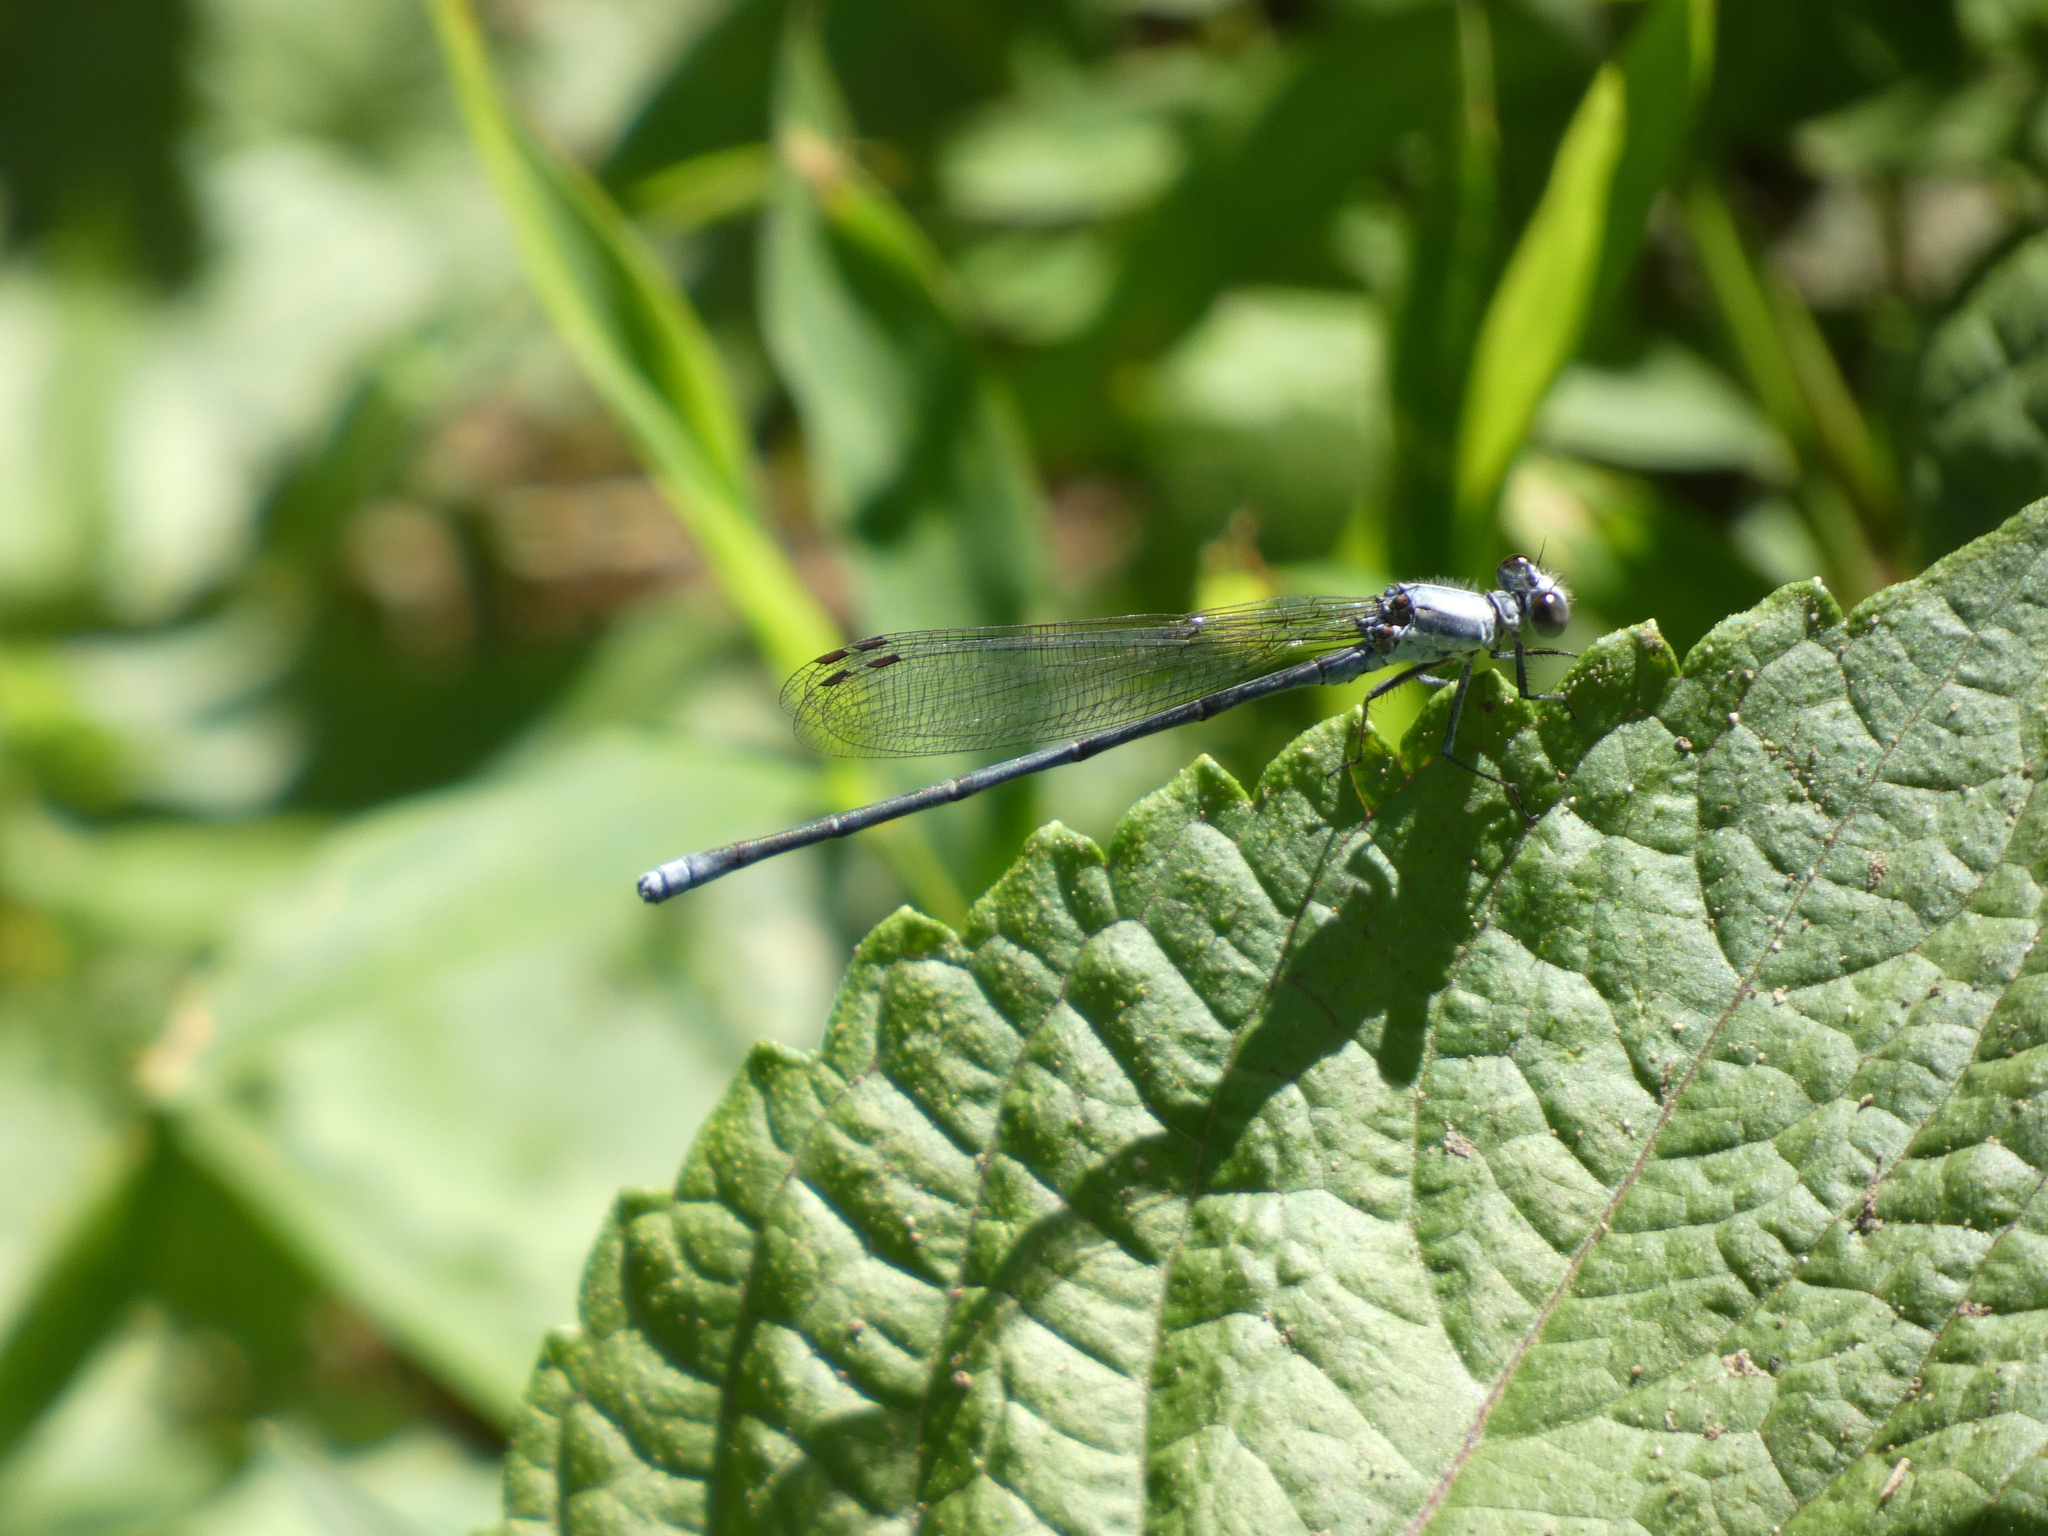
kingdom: Animalia
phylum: Arthropoda
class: Insecta
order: Odonata
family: Coenagrionidae
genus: Argia
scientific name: Argia moesta
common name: Powdered dancer
